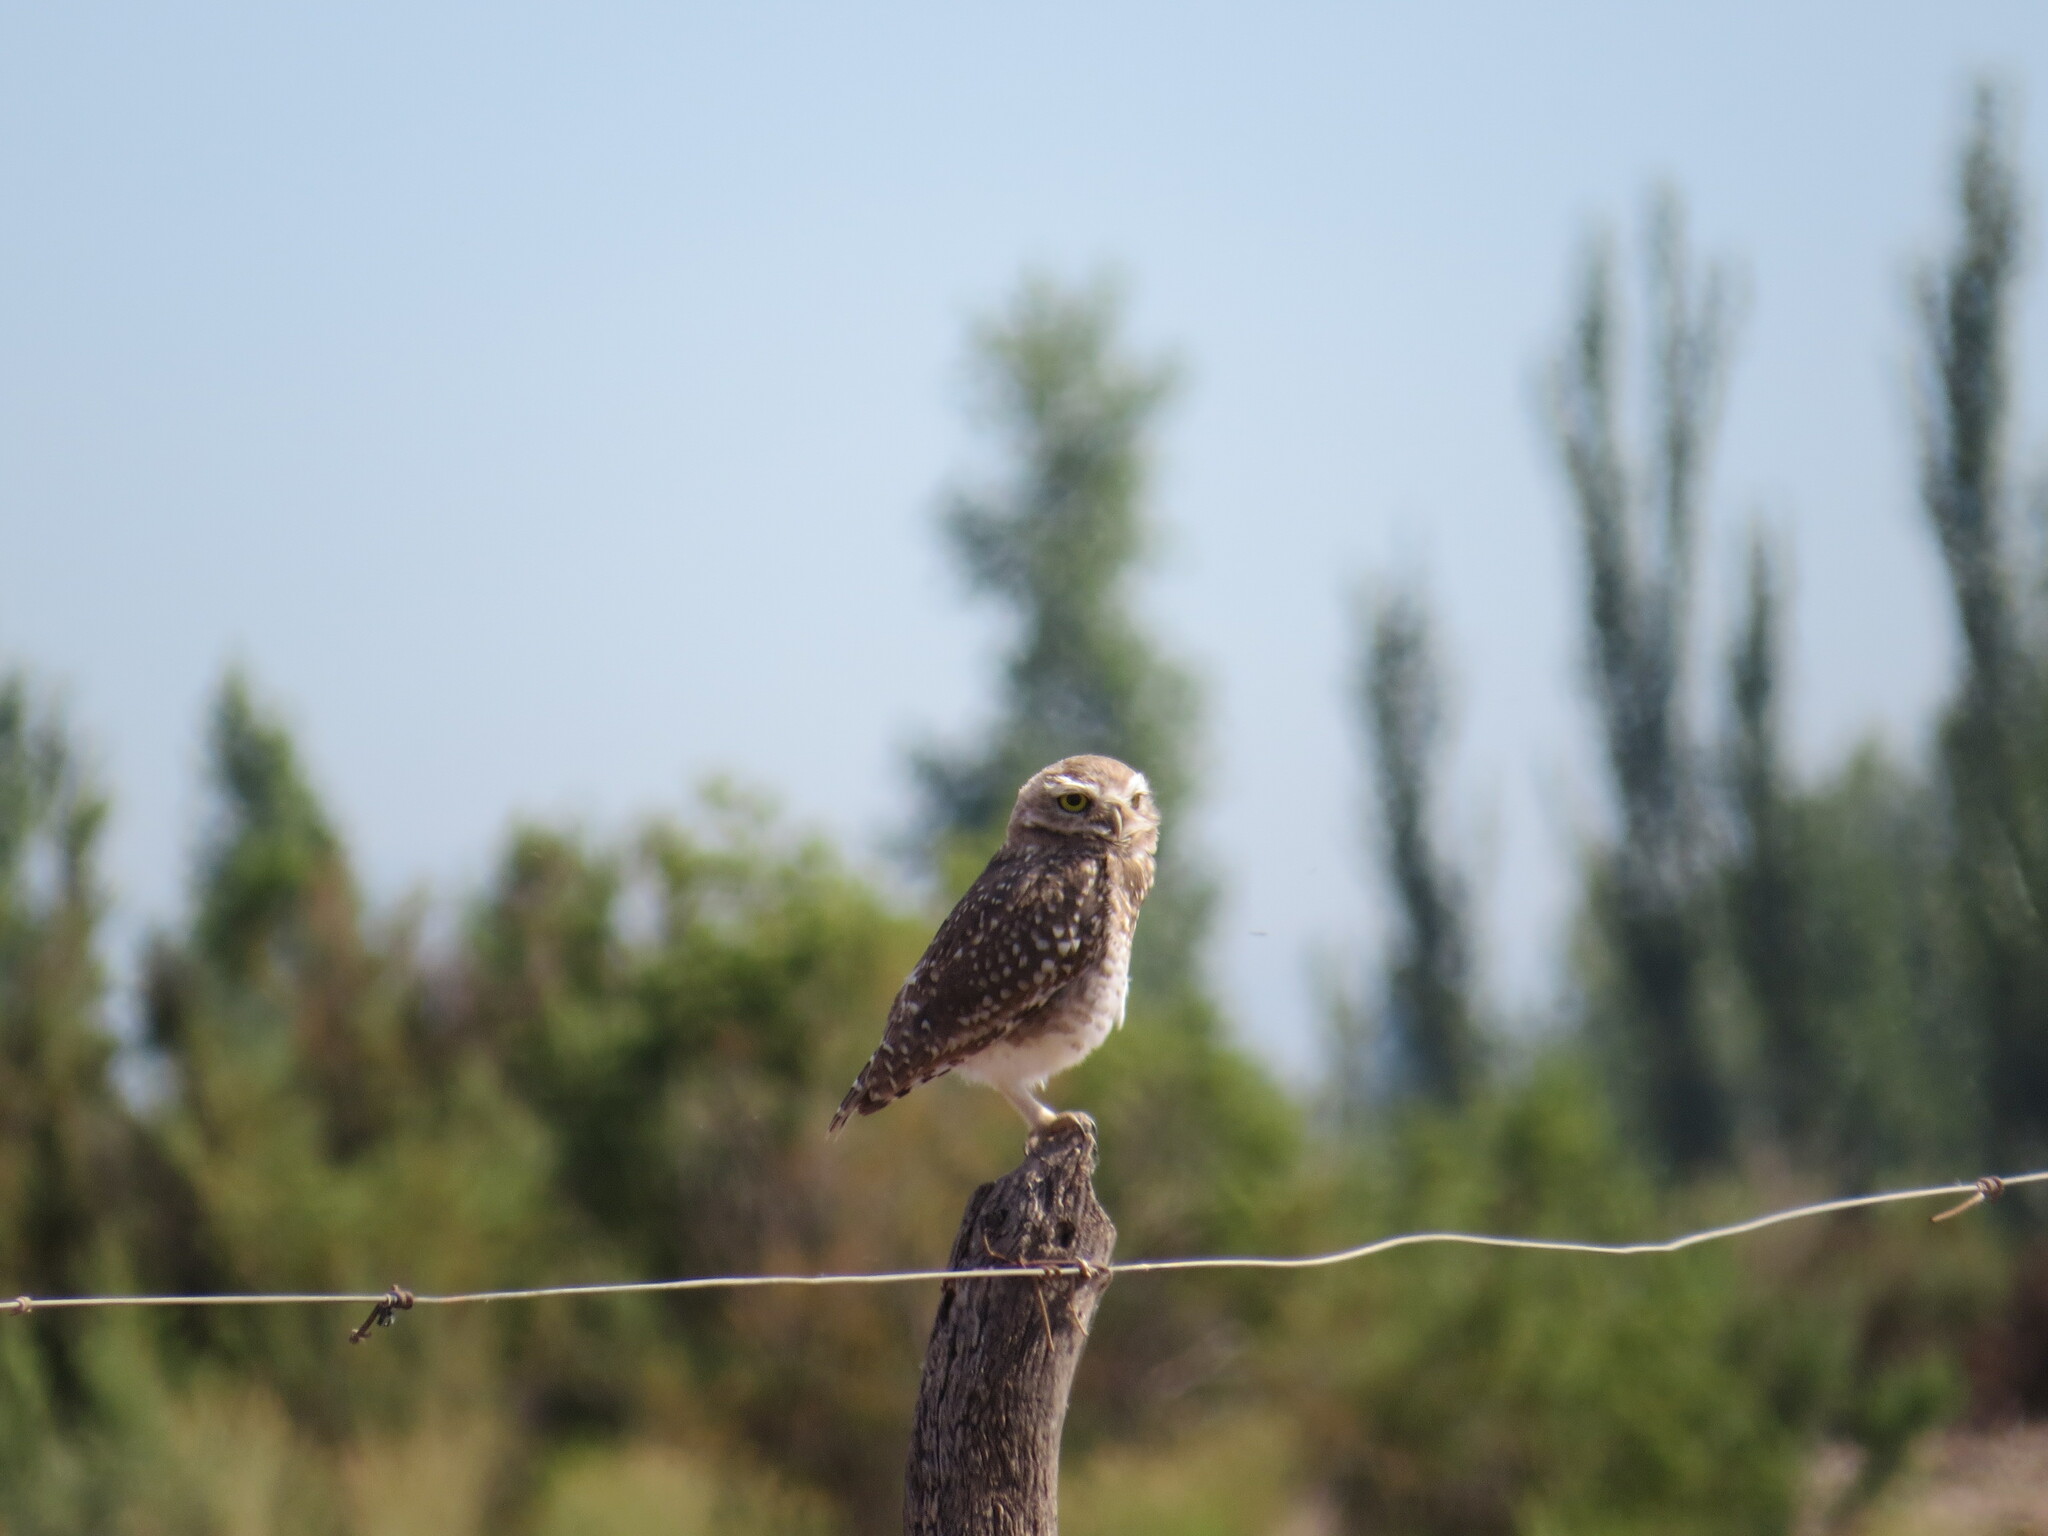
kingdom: Animalia
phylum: Chordata
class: Aves
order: Strigiformes
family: Strigidae
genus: Athene
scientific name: Athene cunicularia
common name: Burrowing owl
